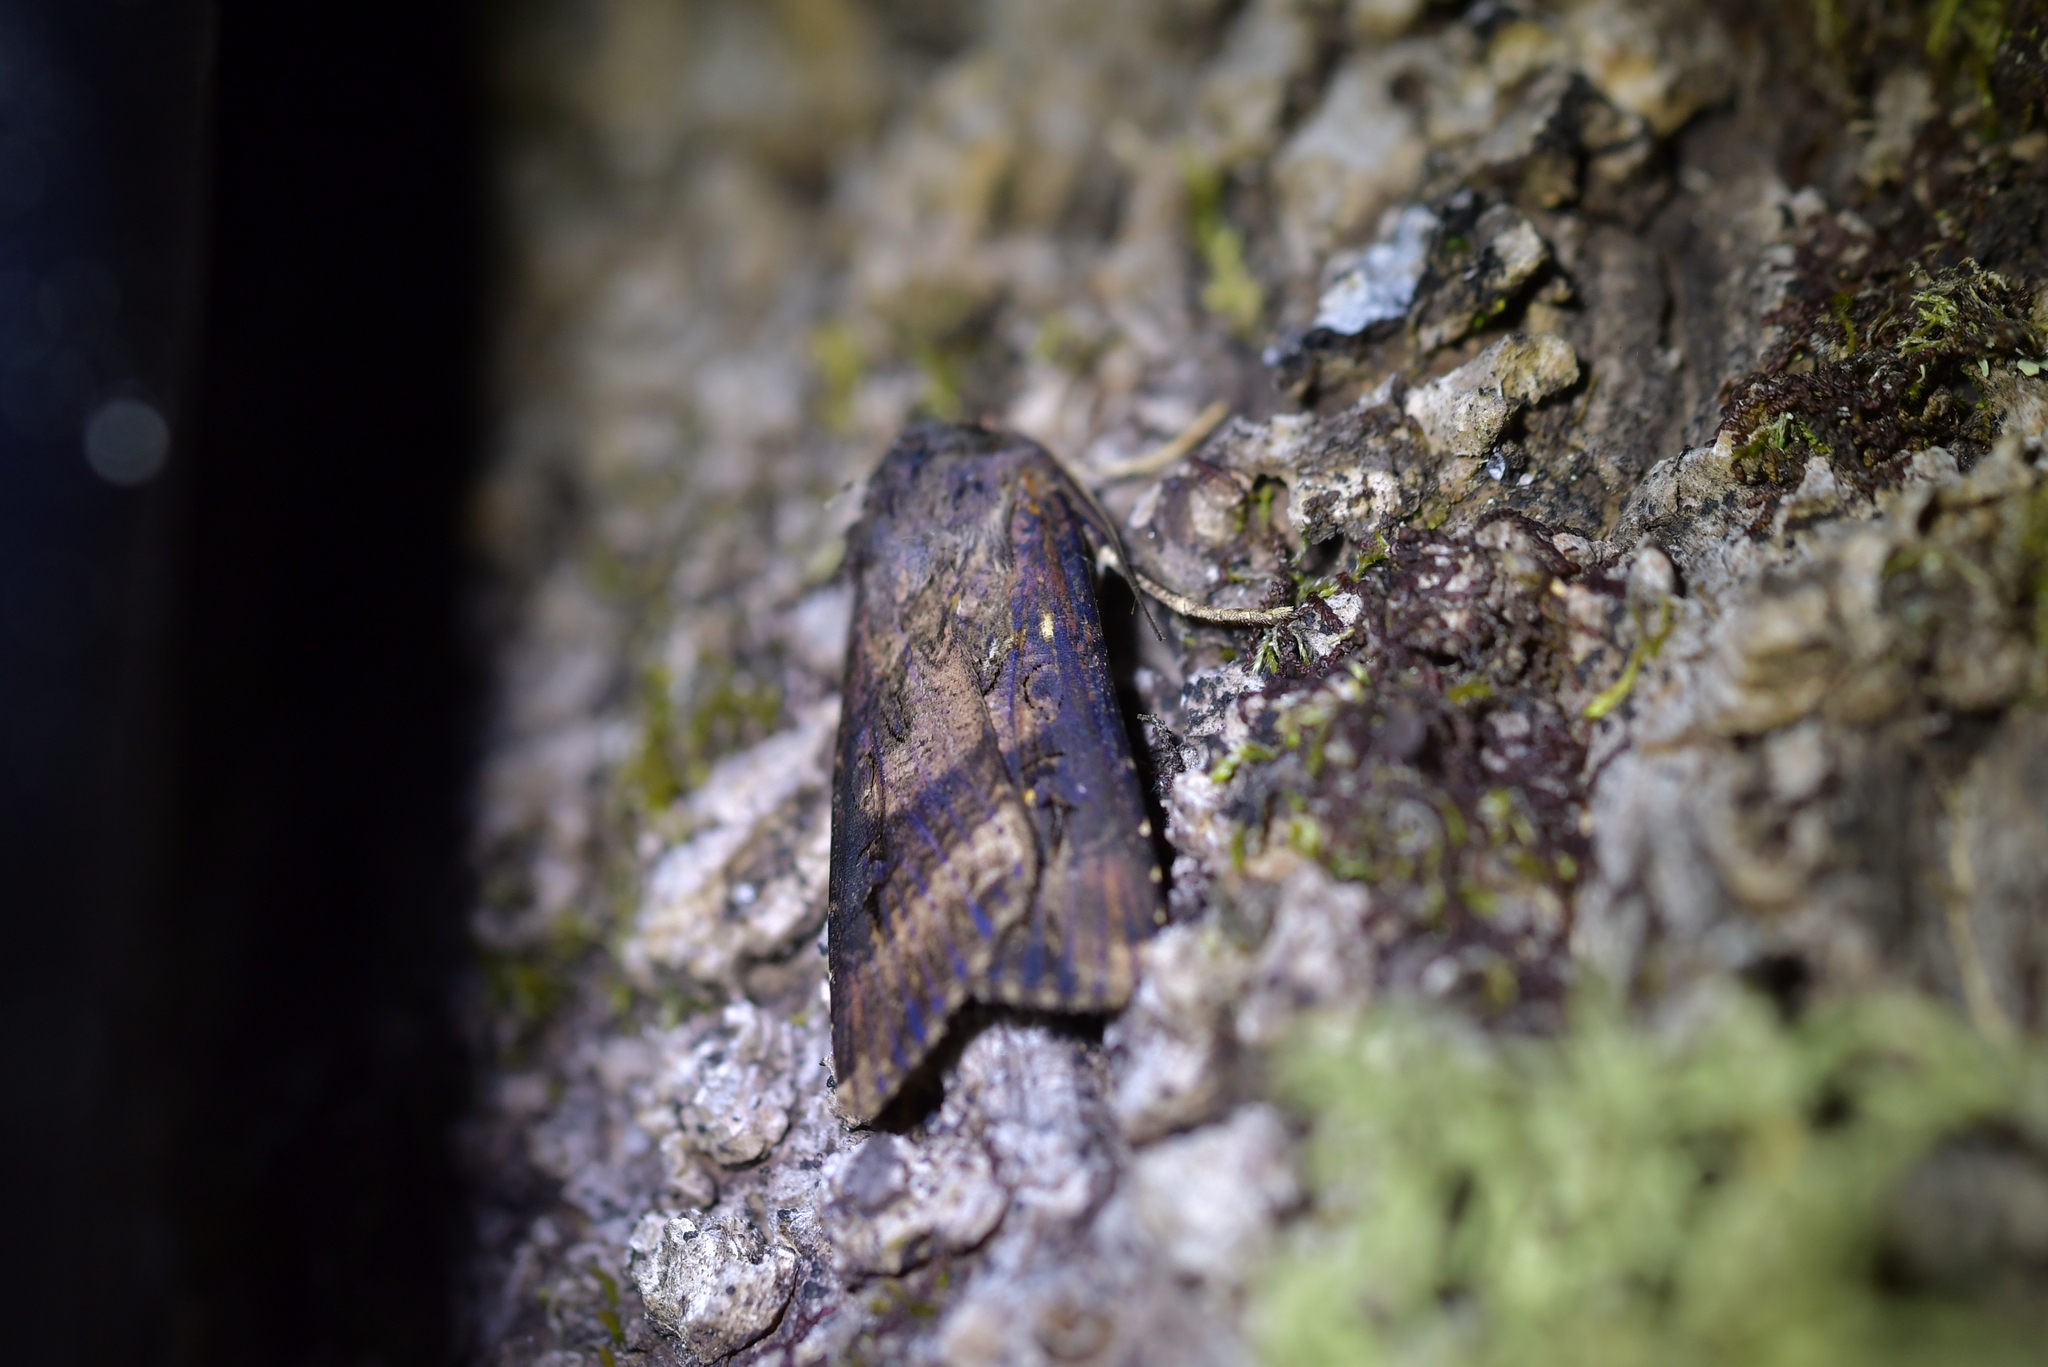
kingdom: Animalia
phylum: Arthropoda
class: Insecta
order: Lepidoptera
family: Noctuidae
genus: Agrotis
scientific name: Agrotis ipsilon
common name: Dark sword-grass
